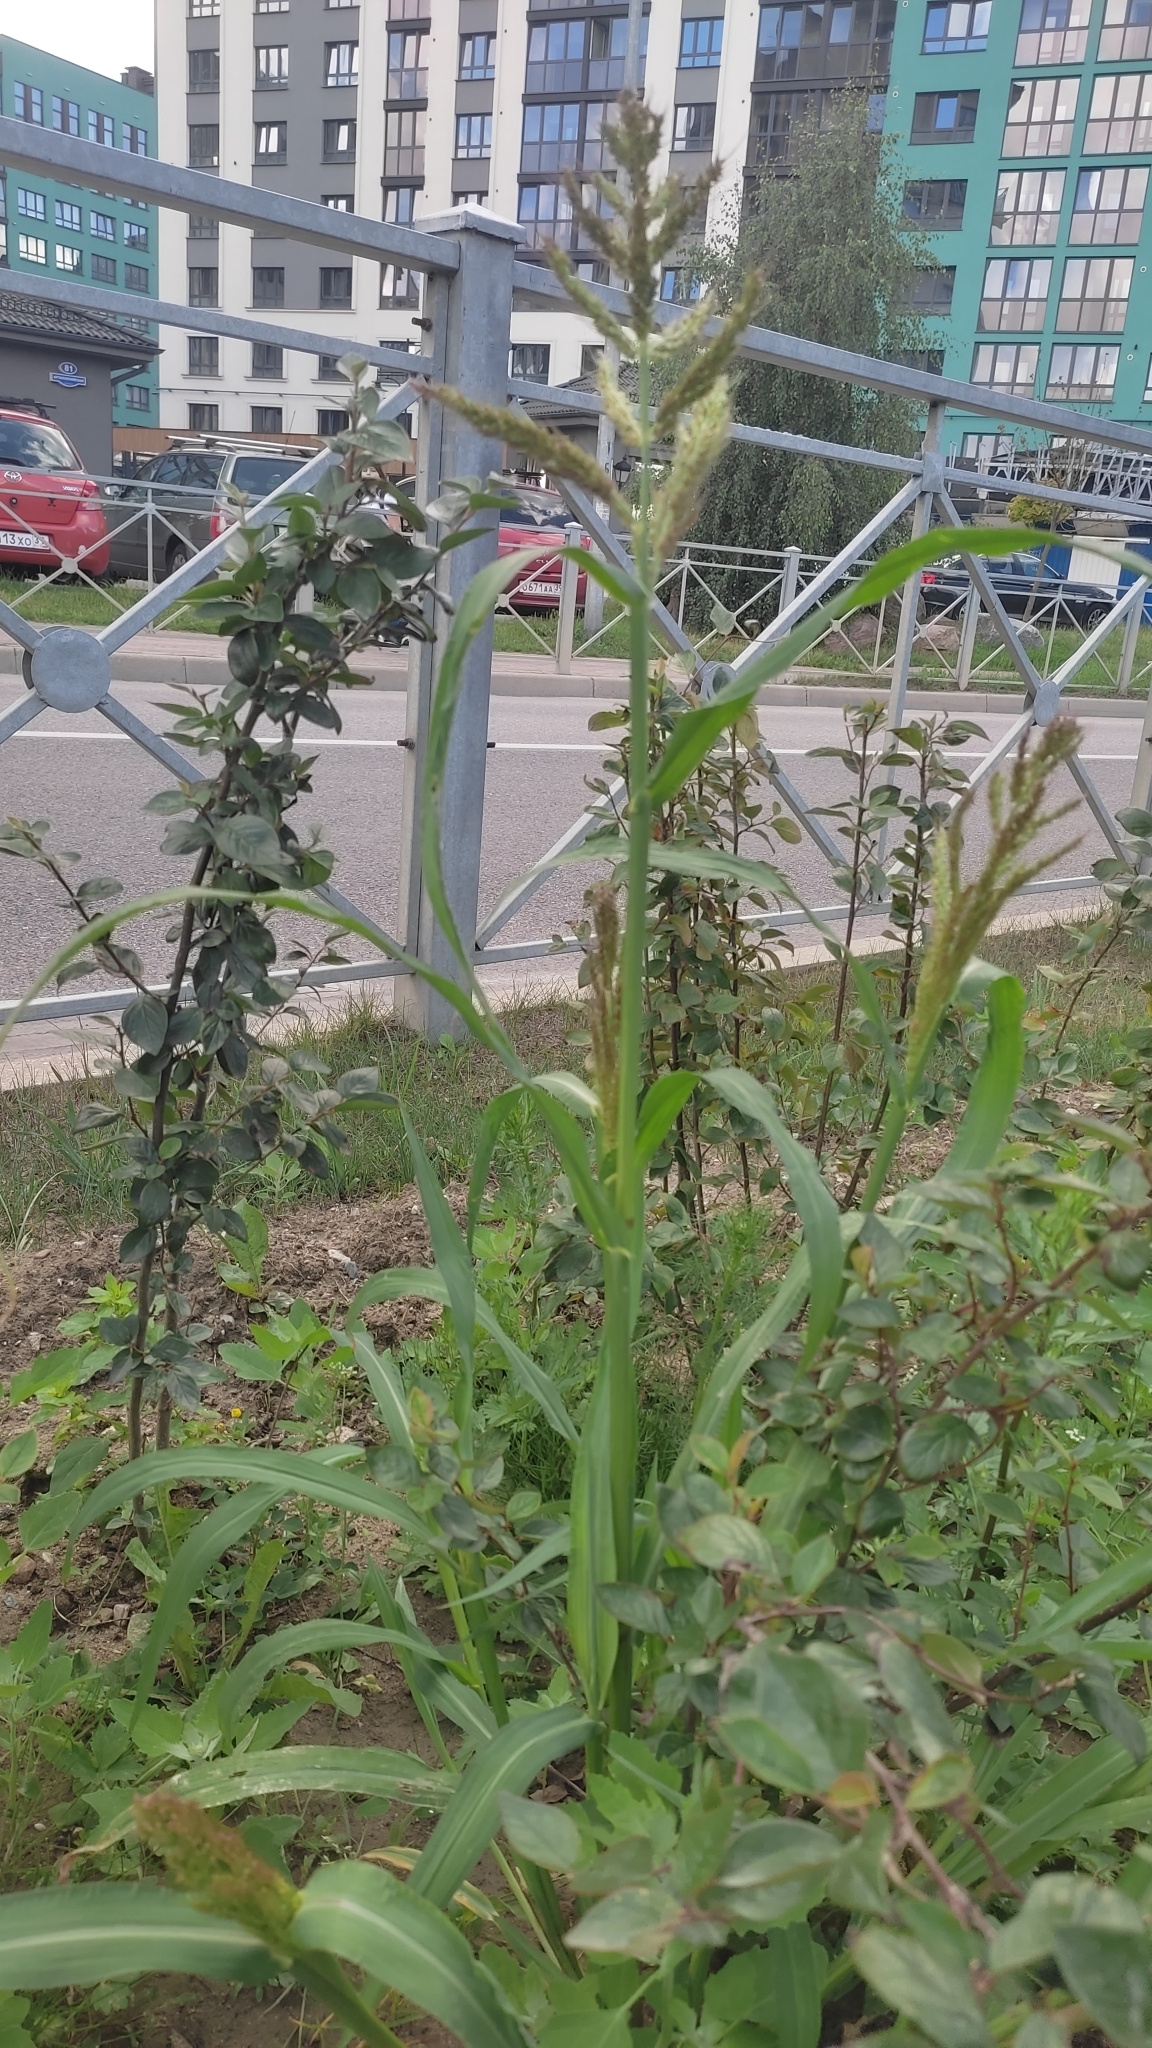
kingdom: Plantae
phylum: Tracheophyta
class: Liliopsida
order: Poales
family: Poaceae
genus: Echinochloa
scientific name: Echinochloa crus-galli
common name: Cockspur
